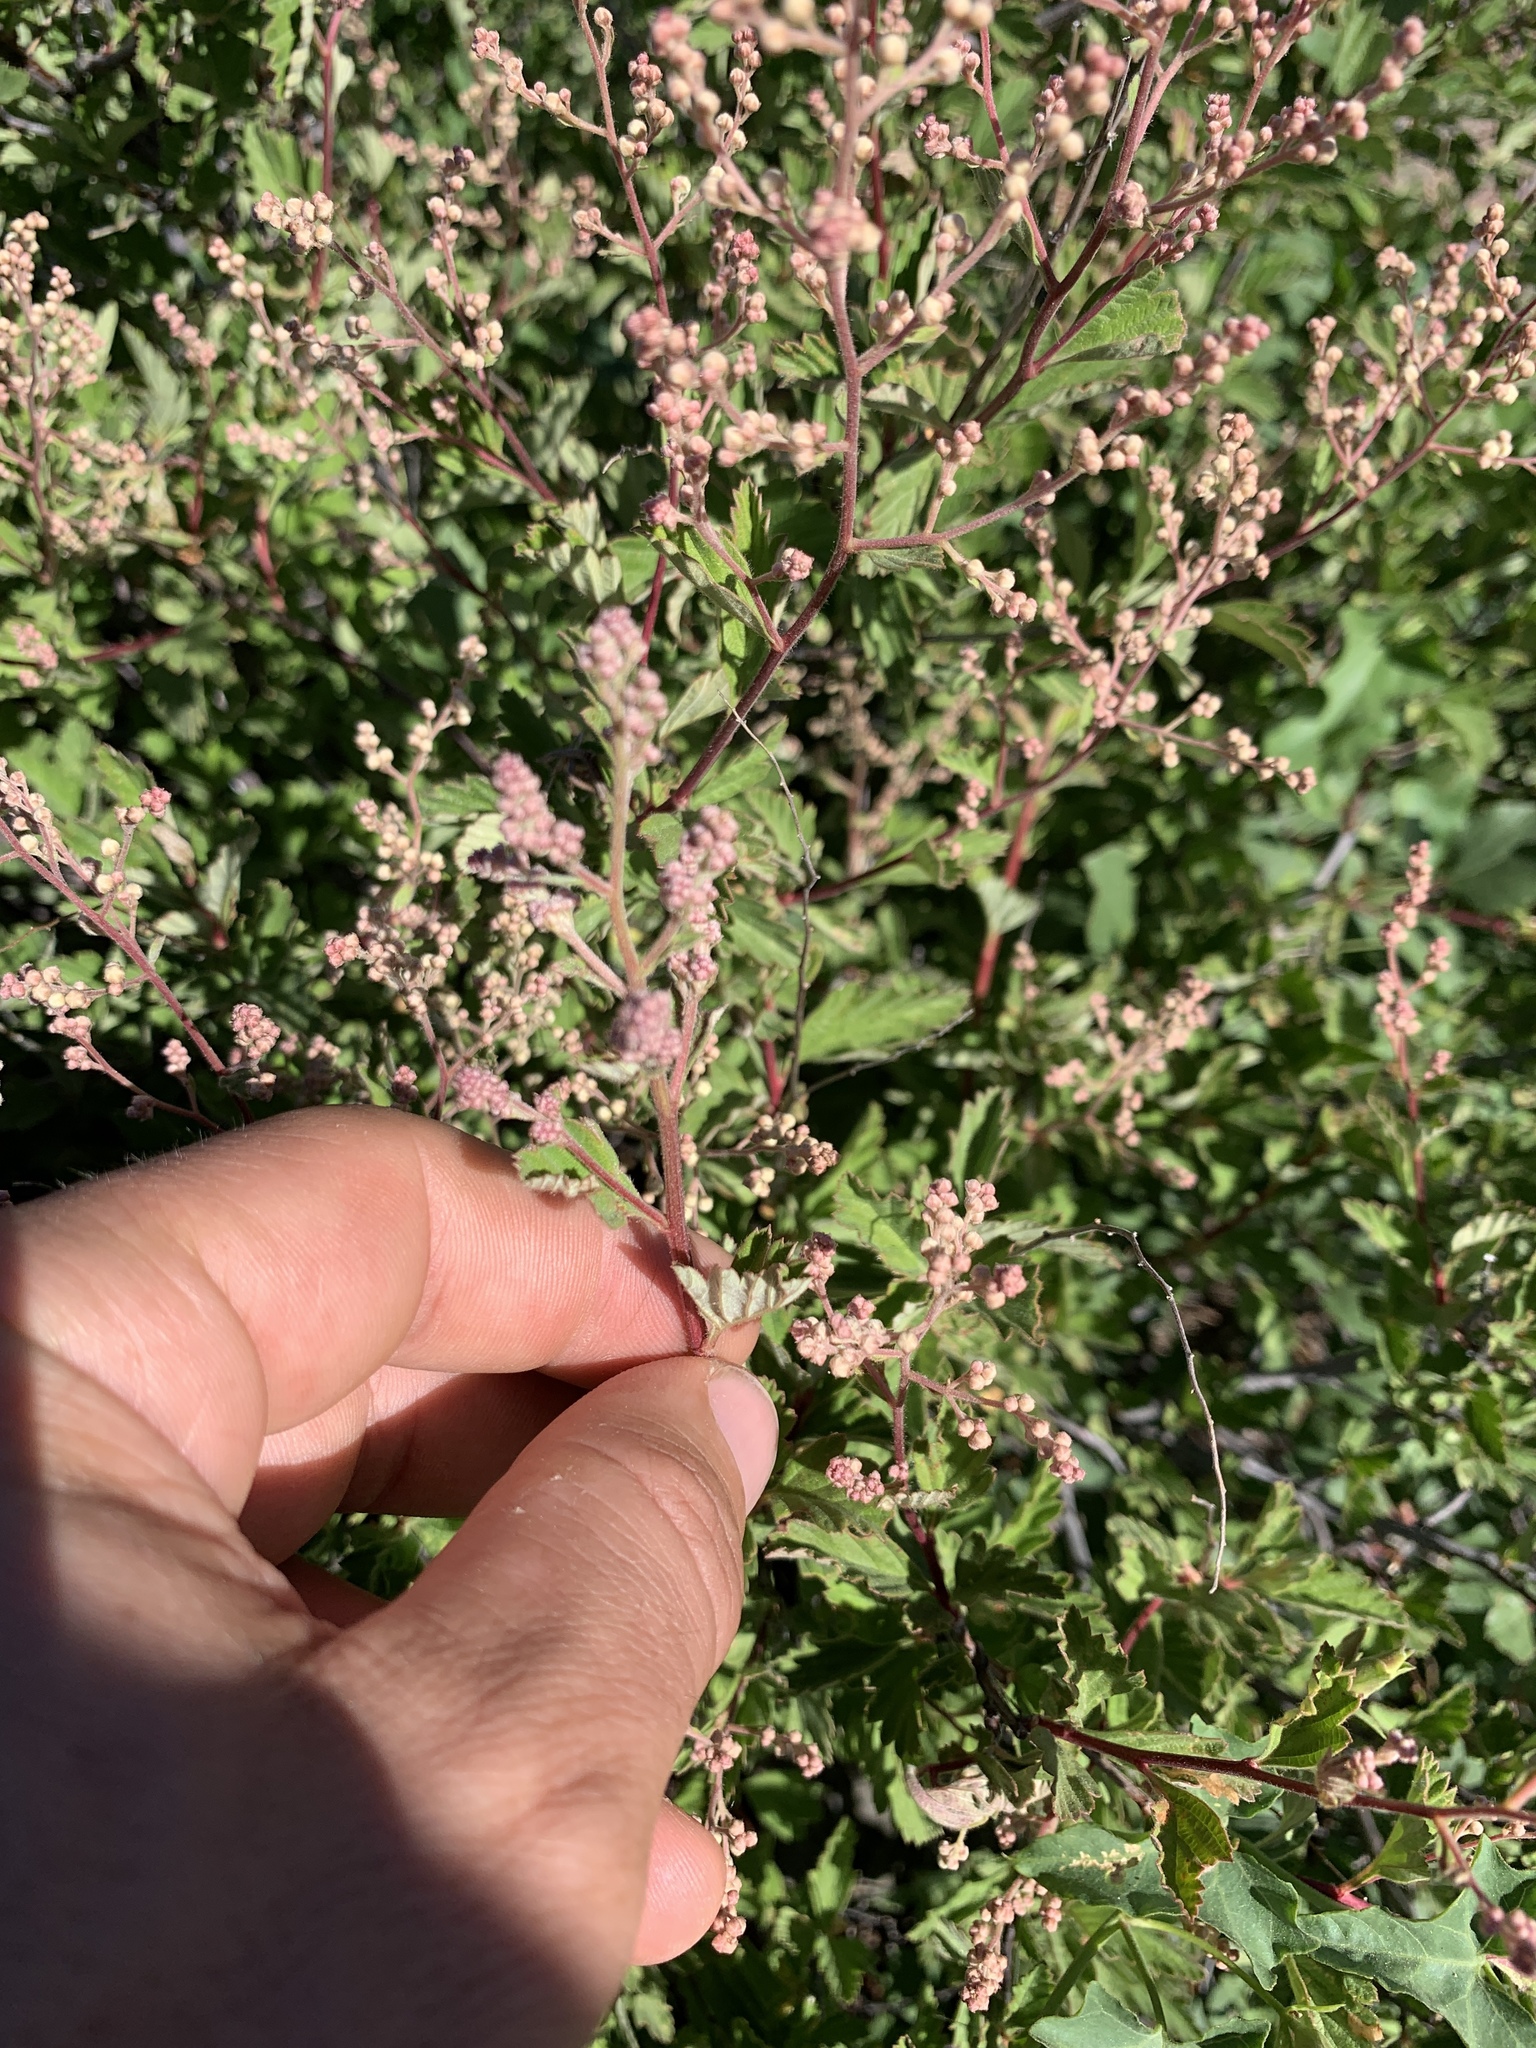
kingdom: Plantae
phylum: Tracheophyta
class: Magnoliopsida
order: Rosales
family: Rosaceae
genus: Holodiscus
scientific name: Holodiscus discolor
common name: Oceanspray
